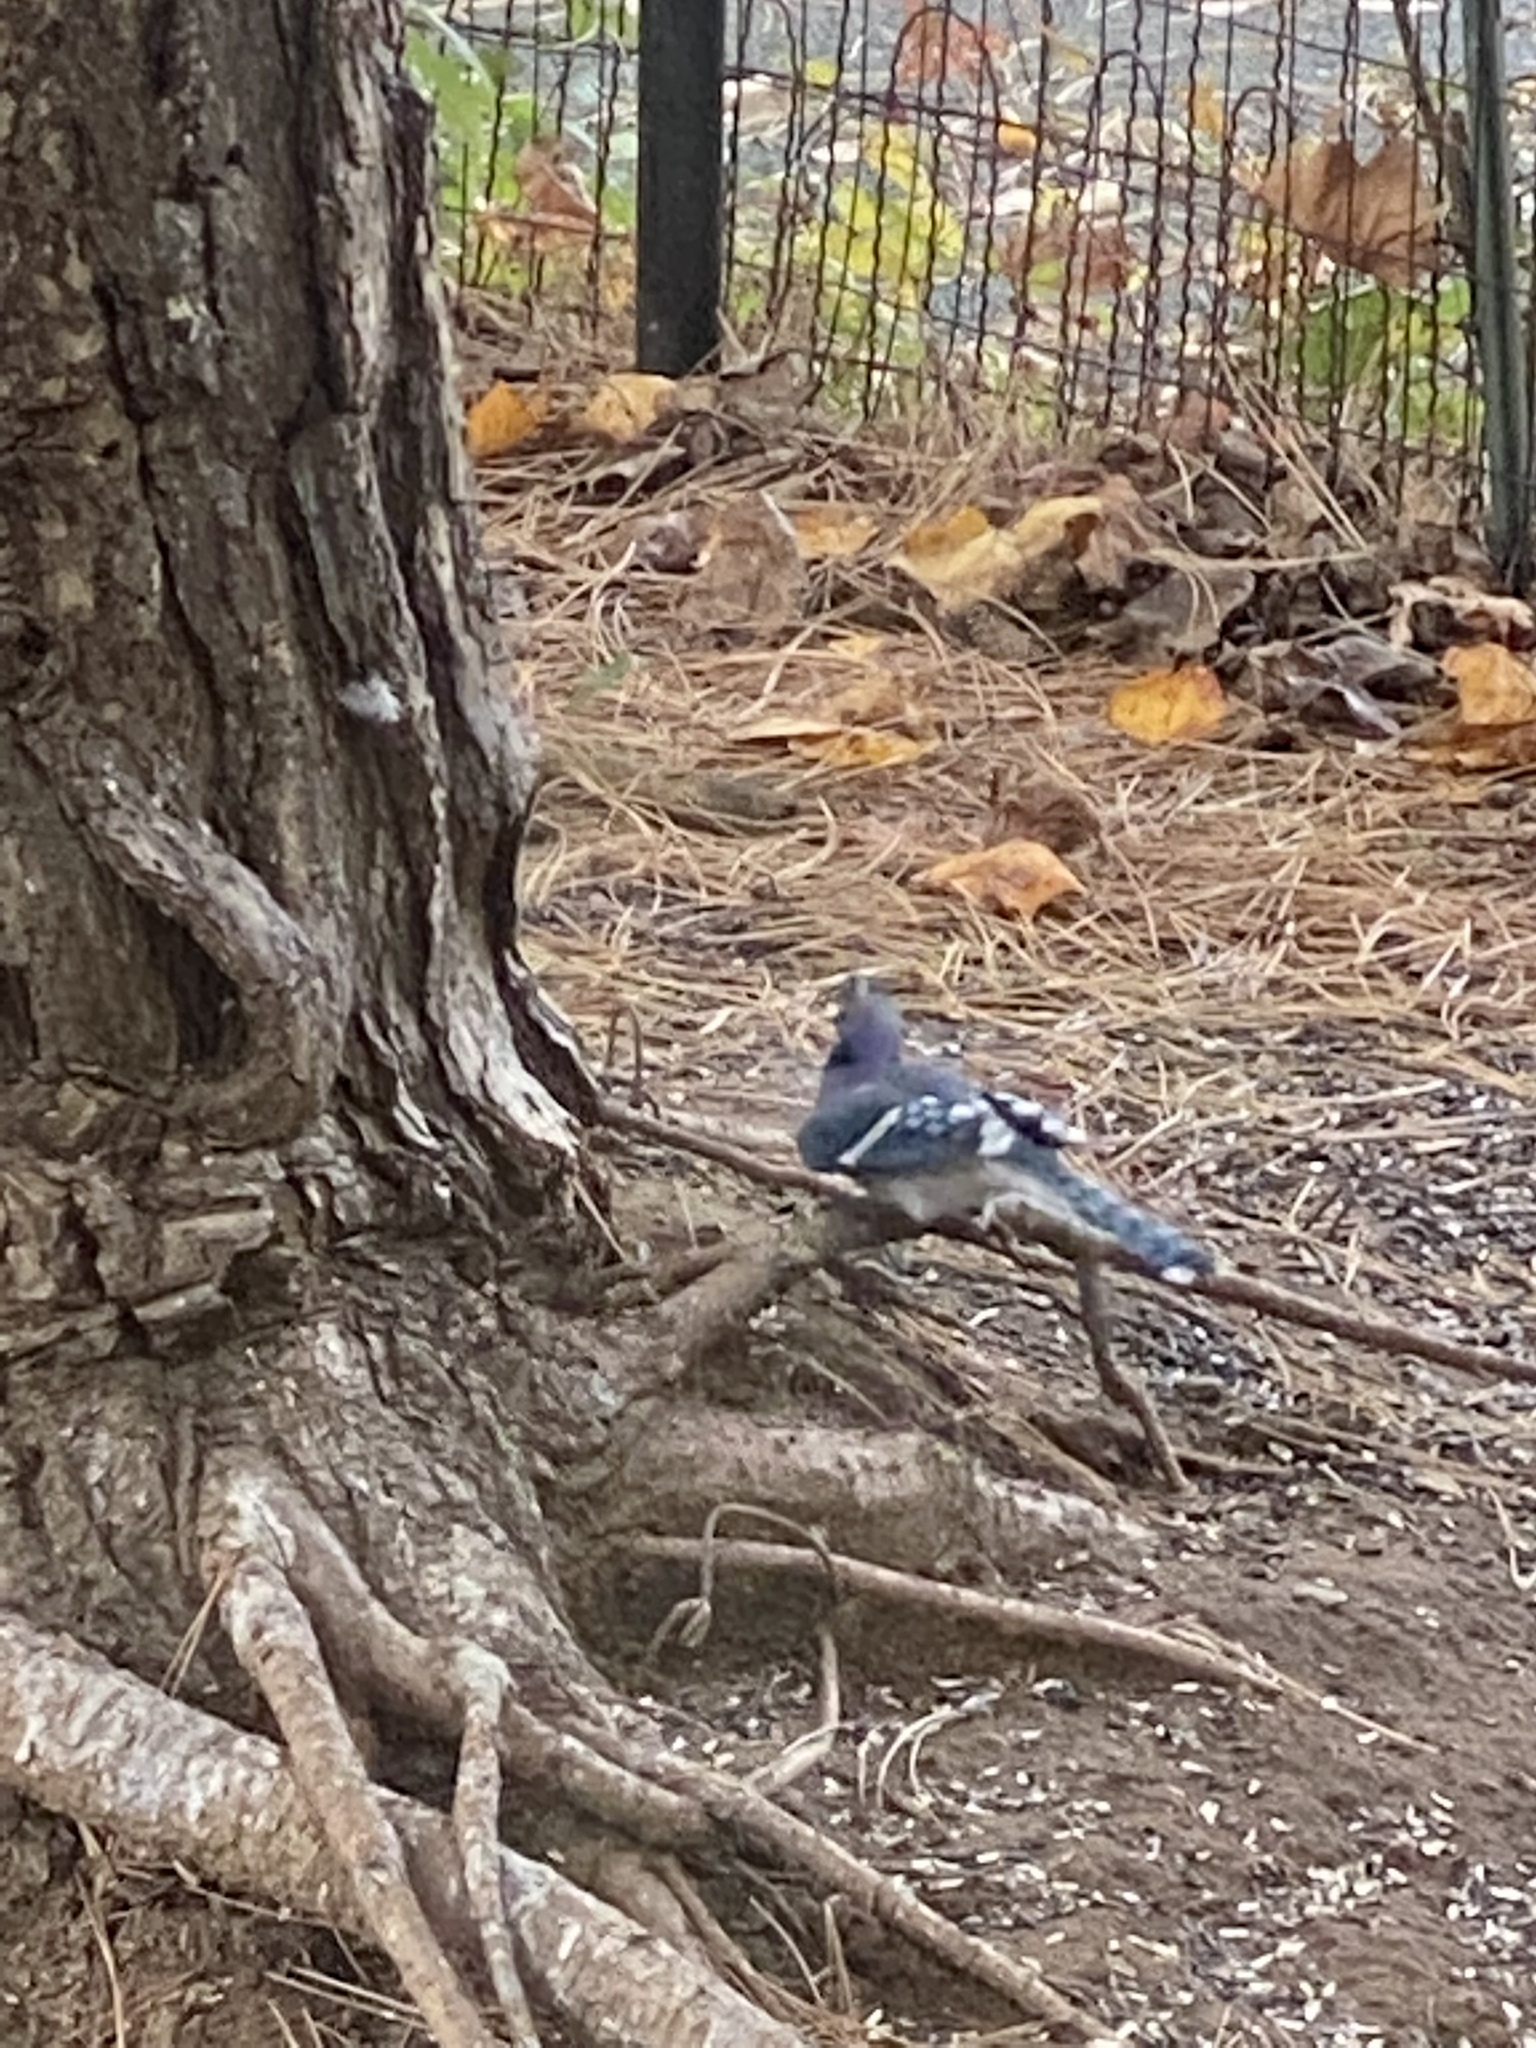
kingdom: Animalia
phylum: Chordata
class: Aves
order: Passeriformes
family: Corvidae
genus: Cyanocitta
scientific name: Cyanocitta cristata
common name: Blue jay
